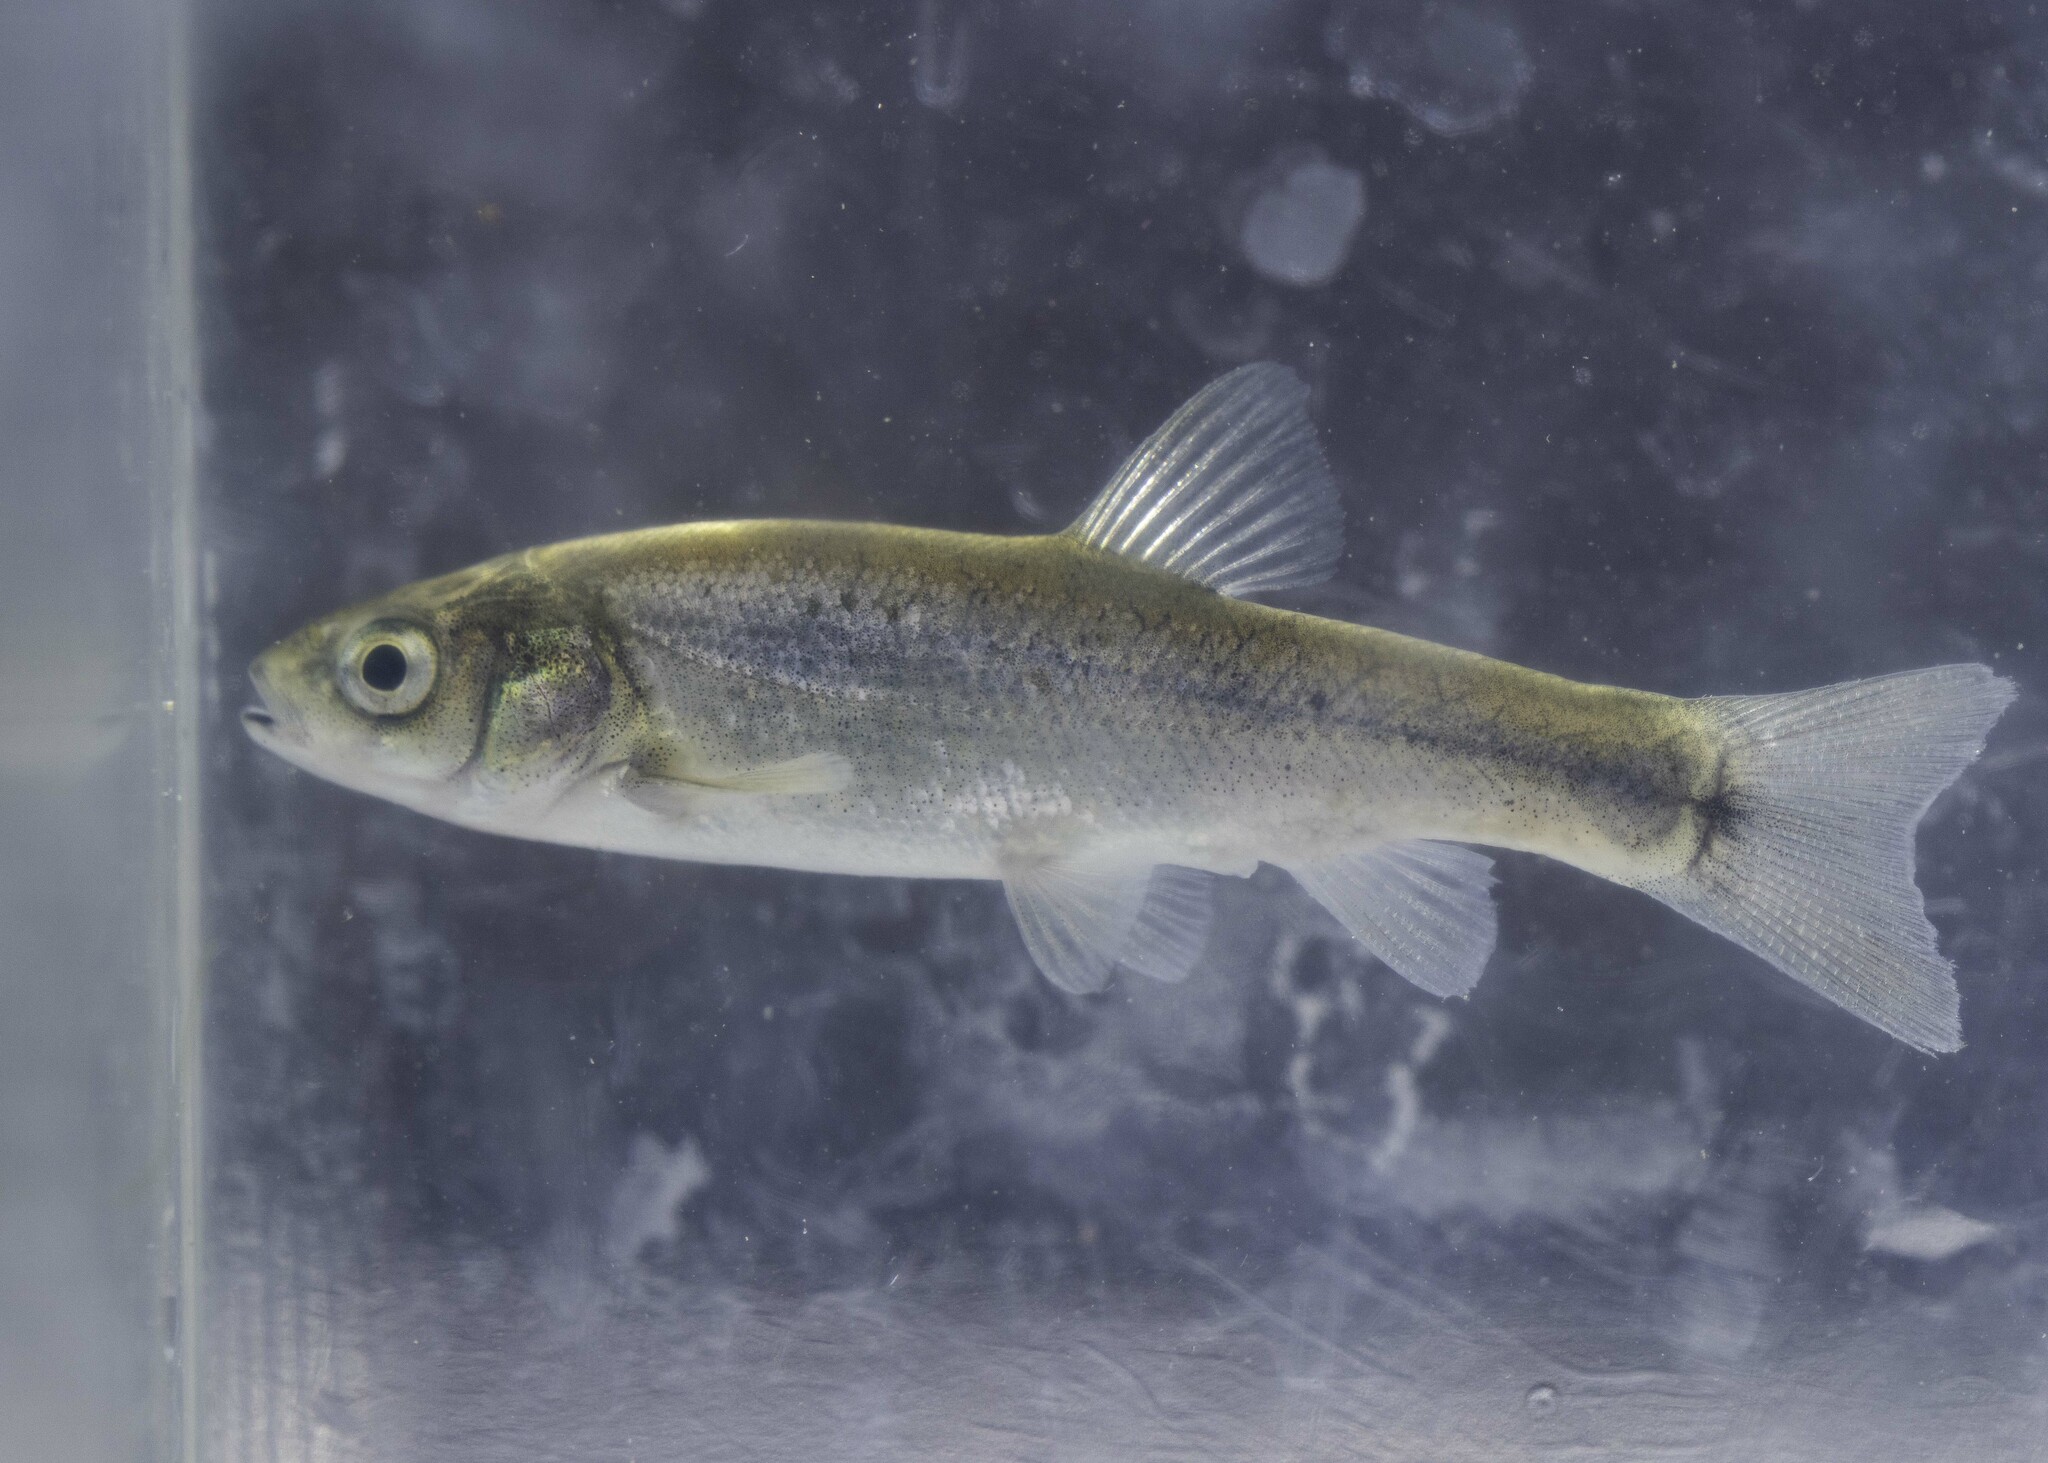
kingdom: Animalia
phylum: Chordata
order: Cypriniformes
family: Cyprinidae
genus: Gila
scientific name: Gila orcuttii
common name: Arroyo chub
